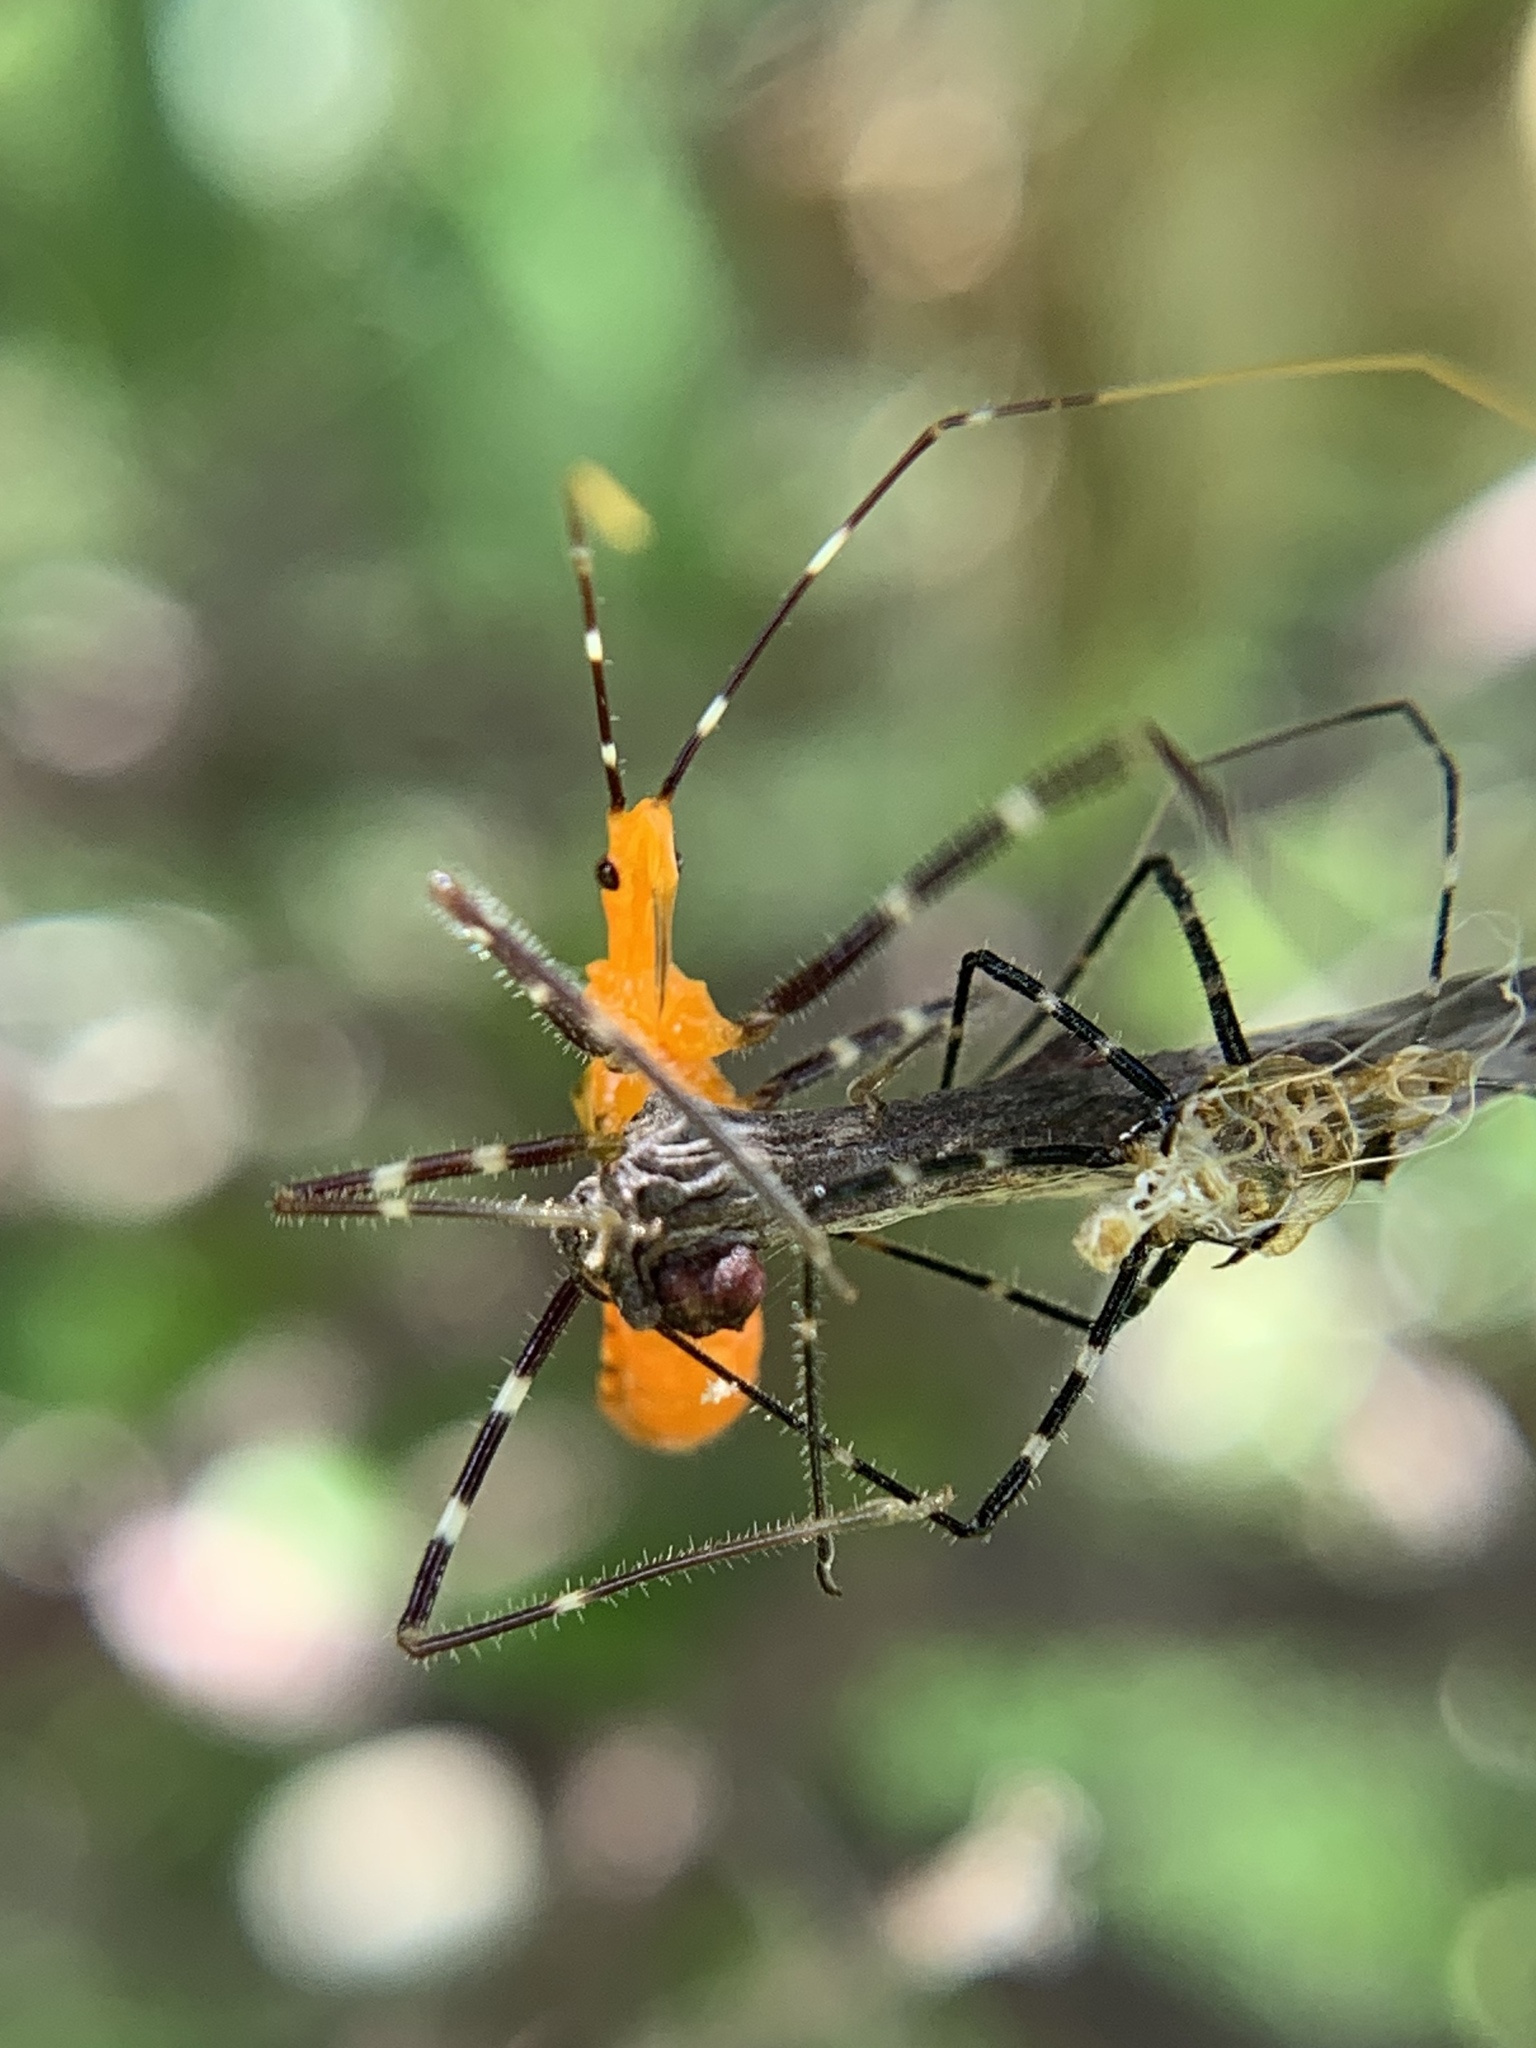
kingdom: Animalia
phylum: Arthropoda
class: Insecta
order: Hemiptera
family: Reduviidae
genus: Zelus
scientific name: Zelus longipes
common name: Milkweed assassin bug
